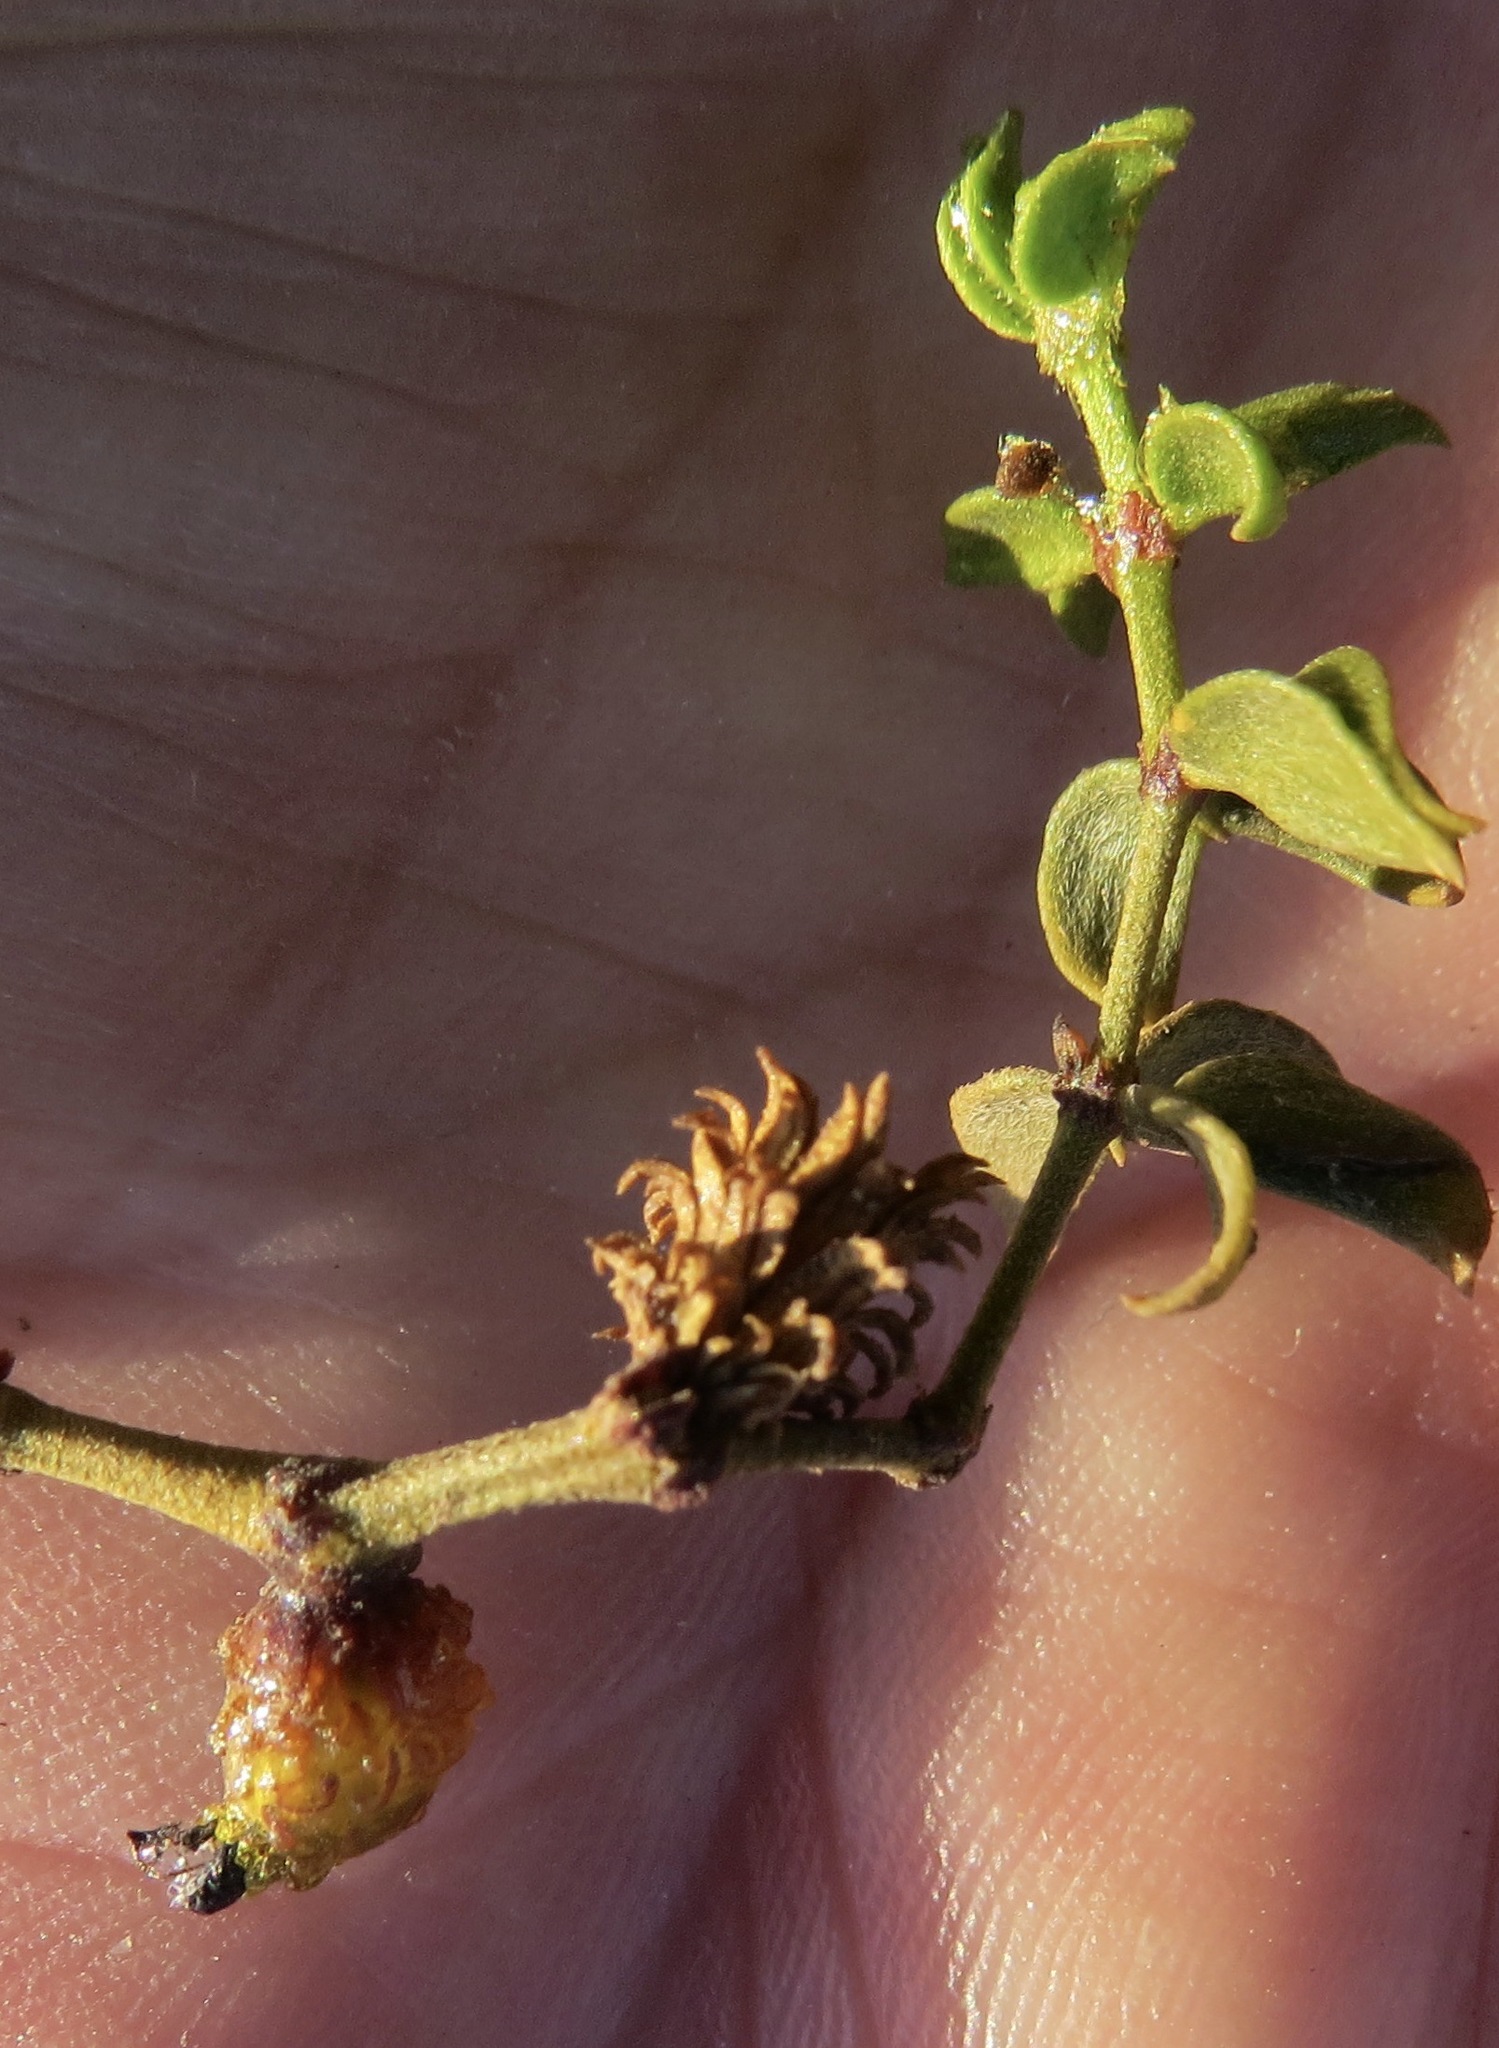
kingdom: Animalia
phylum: Arthropoda
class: Insecta
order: Diptera
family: Cecidomyiidae
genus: Asphondylia
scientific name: Asphondylia rosetta
